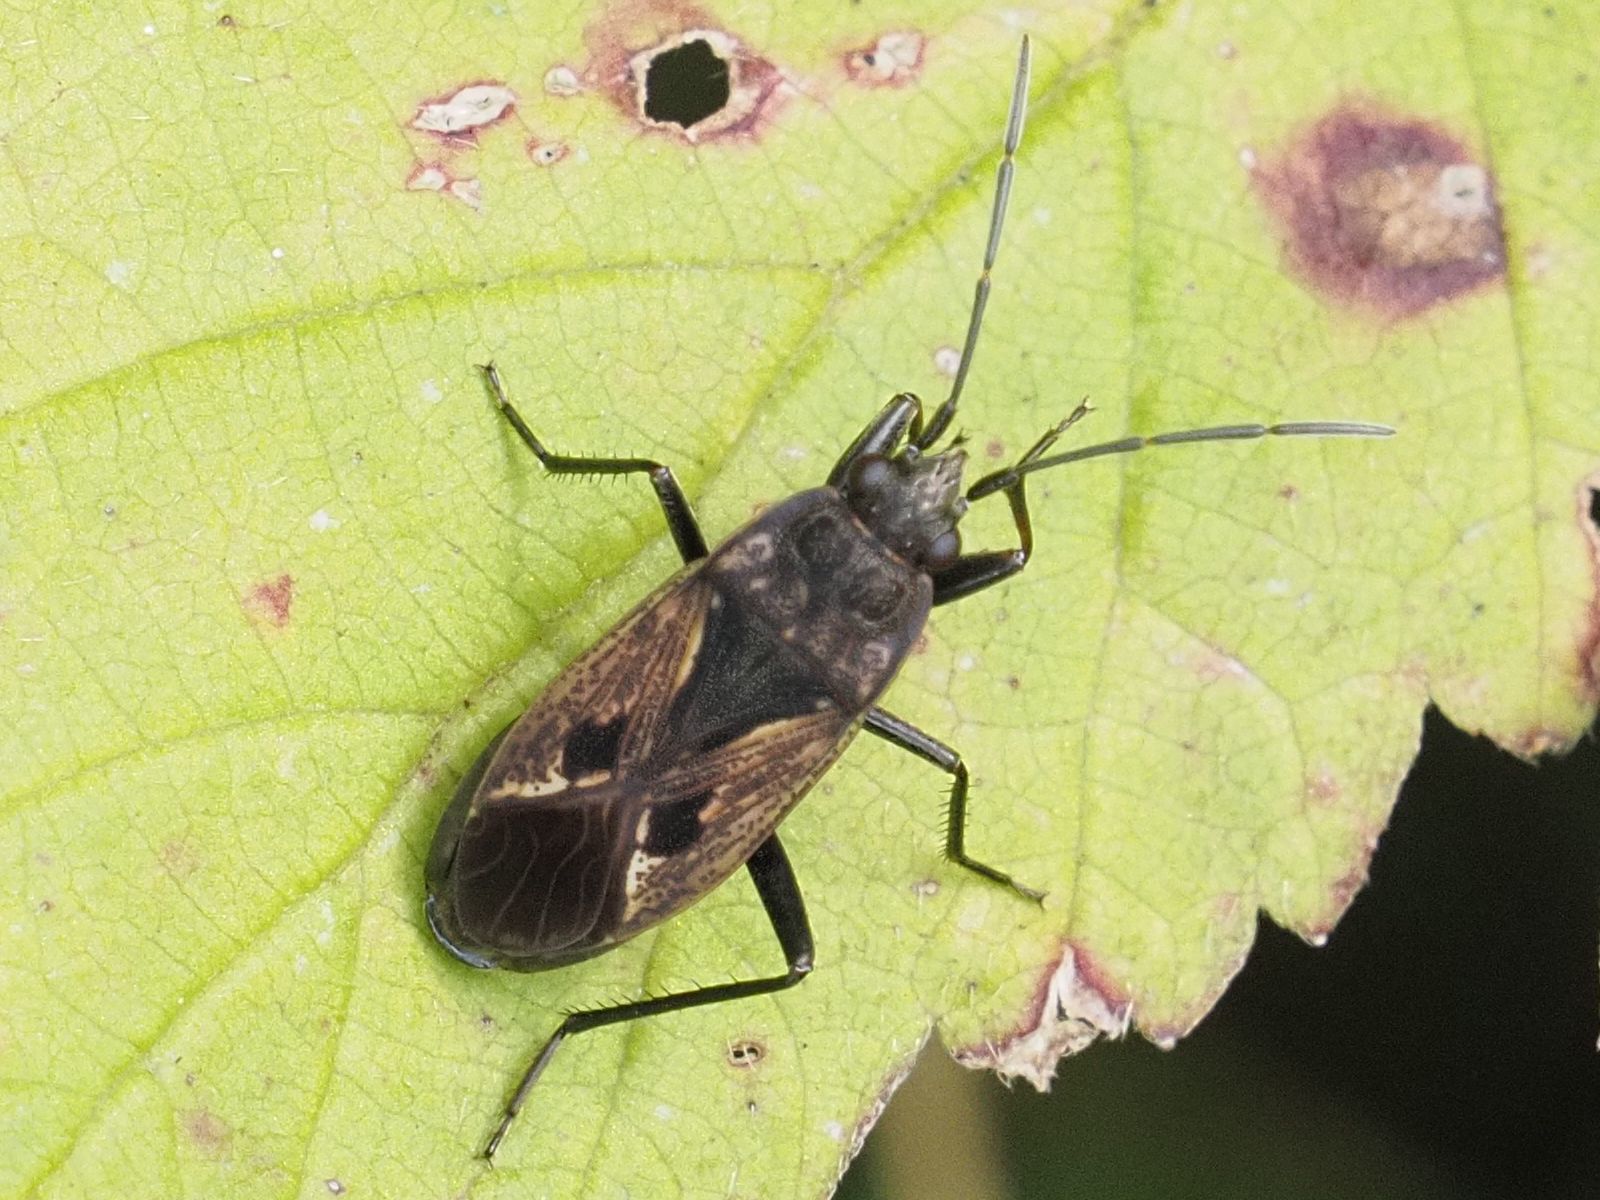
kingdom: Animalia
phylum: Arthropoda
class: Insecta
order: Hemiptera
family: Rhyparochromidae
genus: Rhyparochromus
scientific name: Rhyparochromus pini
